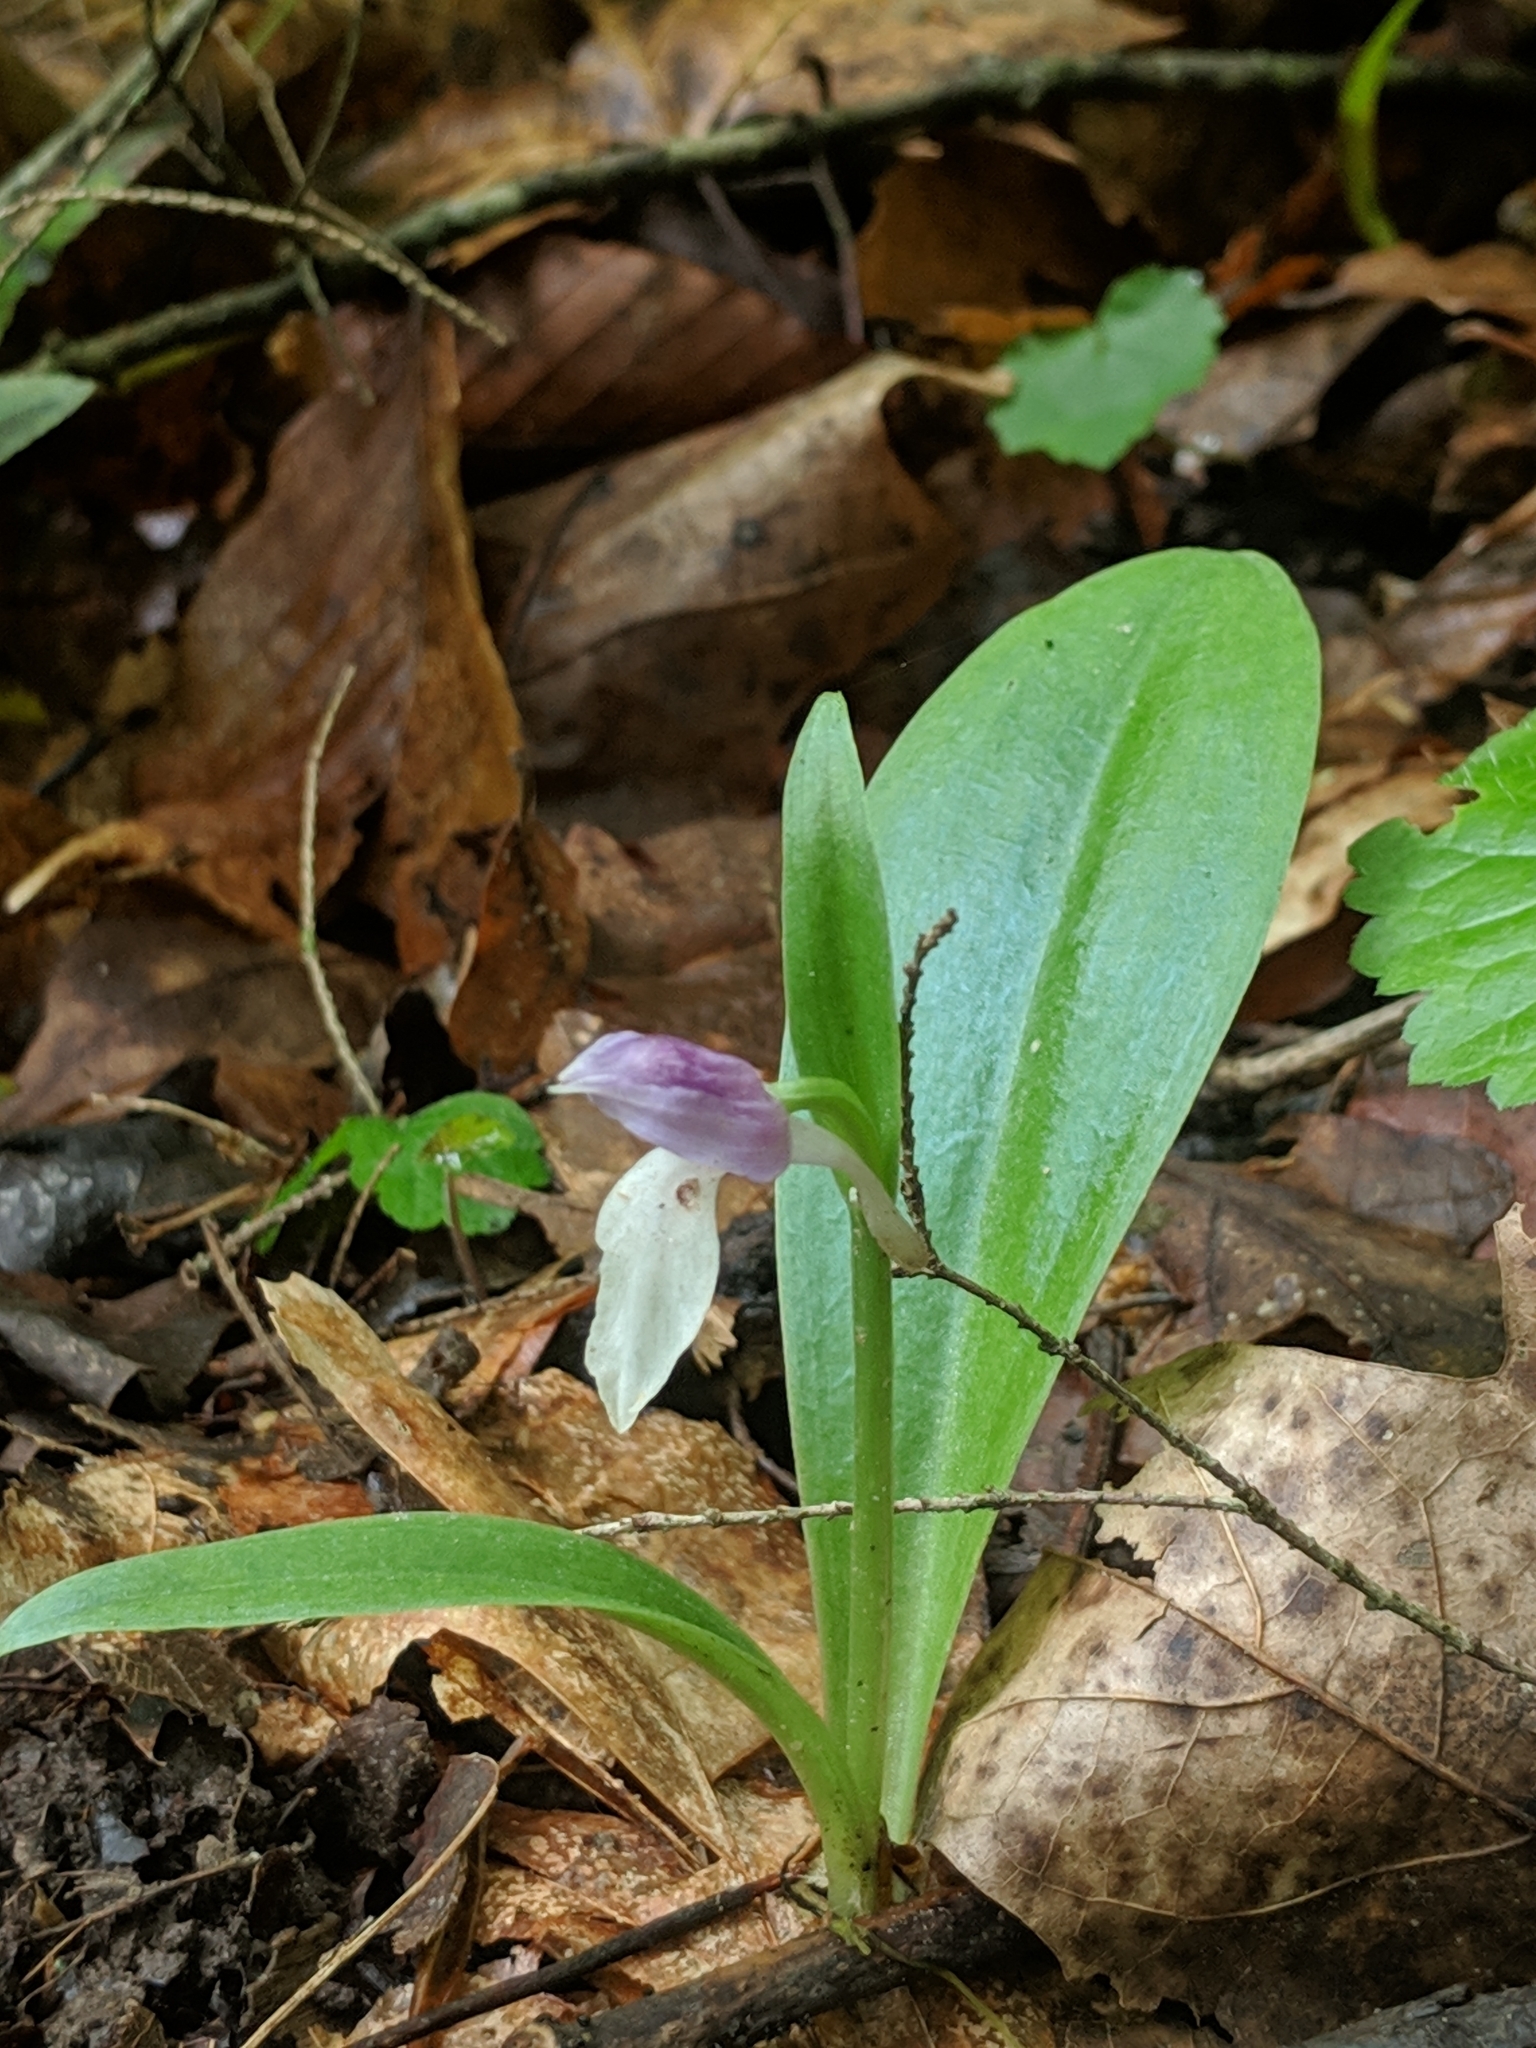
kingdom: Plantae
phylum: Tracheophyta
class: Liliopsida
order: Asparagales
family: Orchidaceae
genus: Galearis
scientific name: Galearis spectabilis
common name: Purple-hooded orchis
